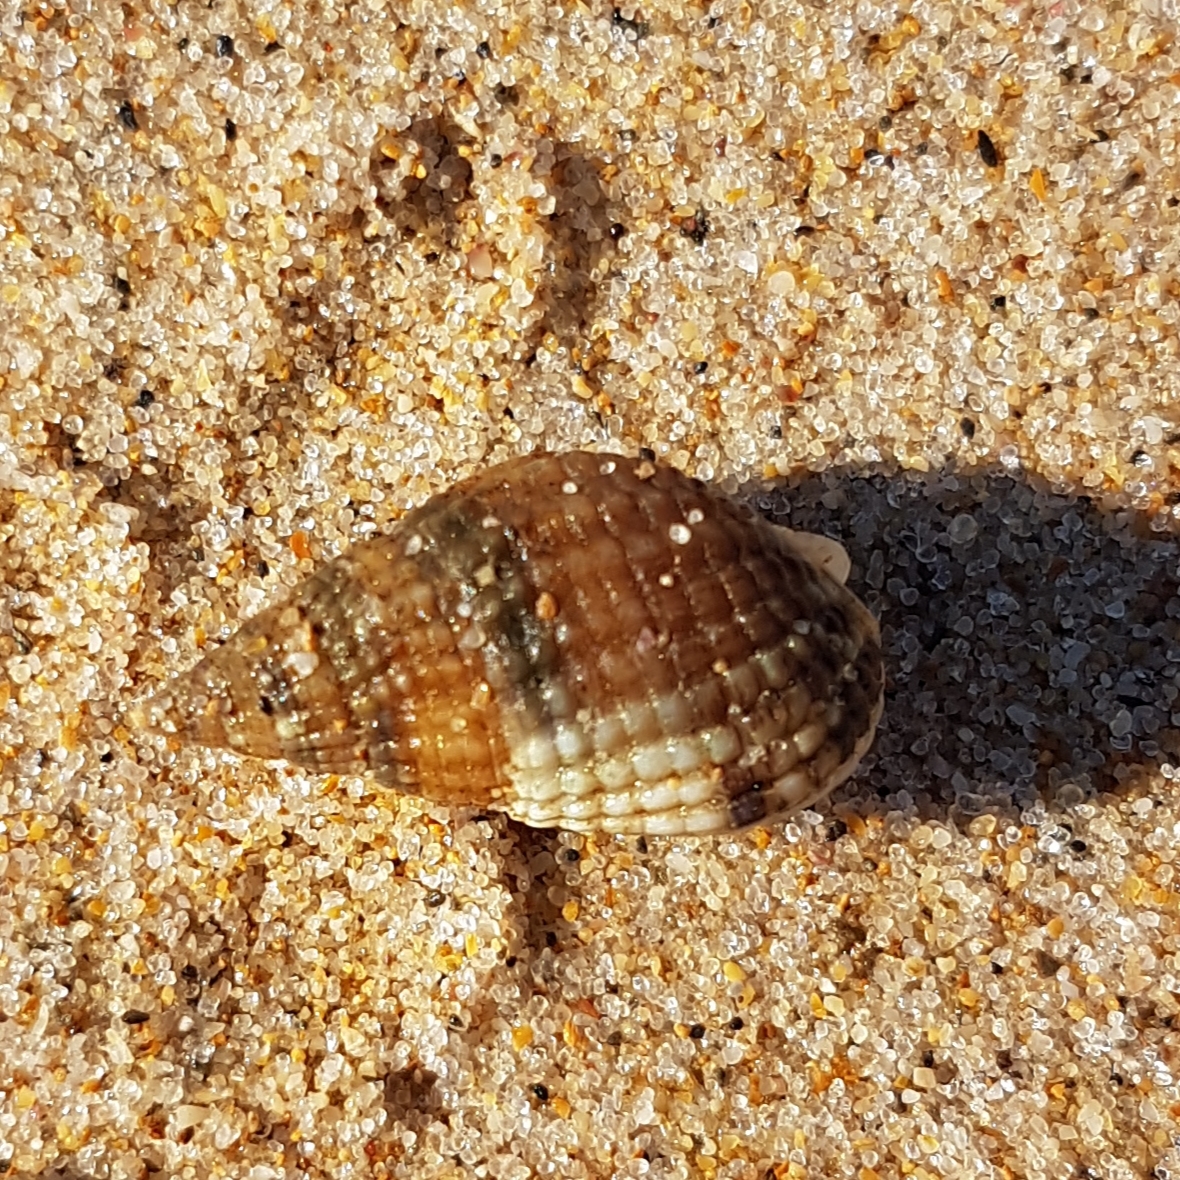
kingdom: Animalia
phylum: Mollusca
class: Gastropoda
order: Neogastropoda
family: Nassariidae
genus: Tritia
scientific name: Tritia reticulata
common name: Netted dog whelk
